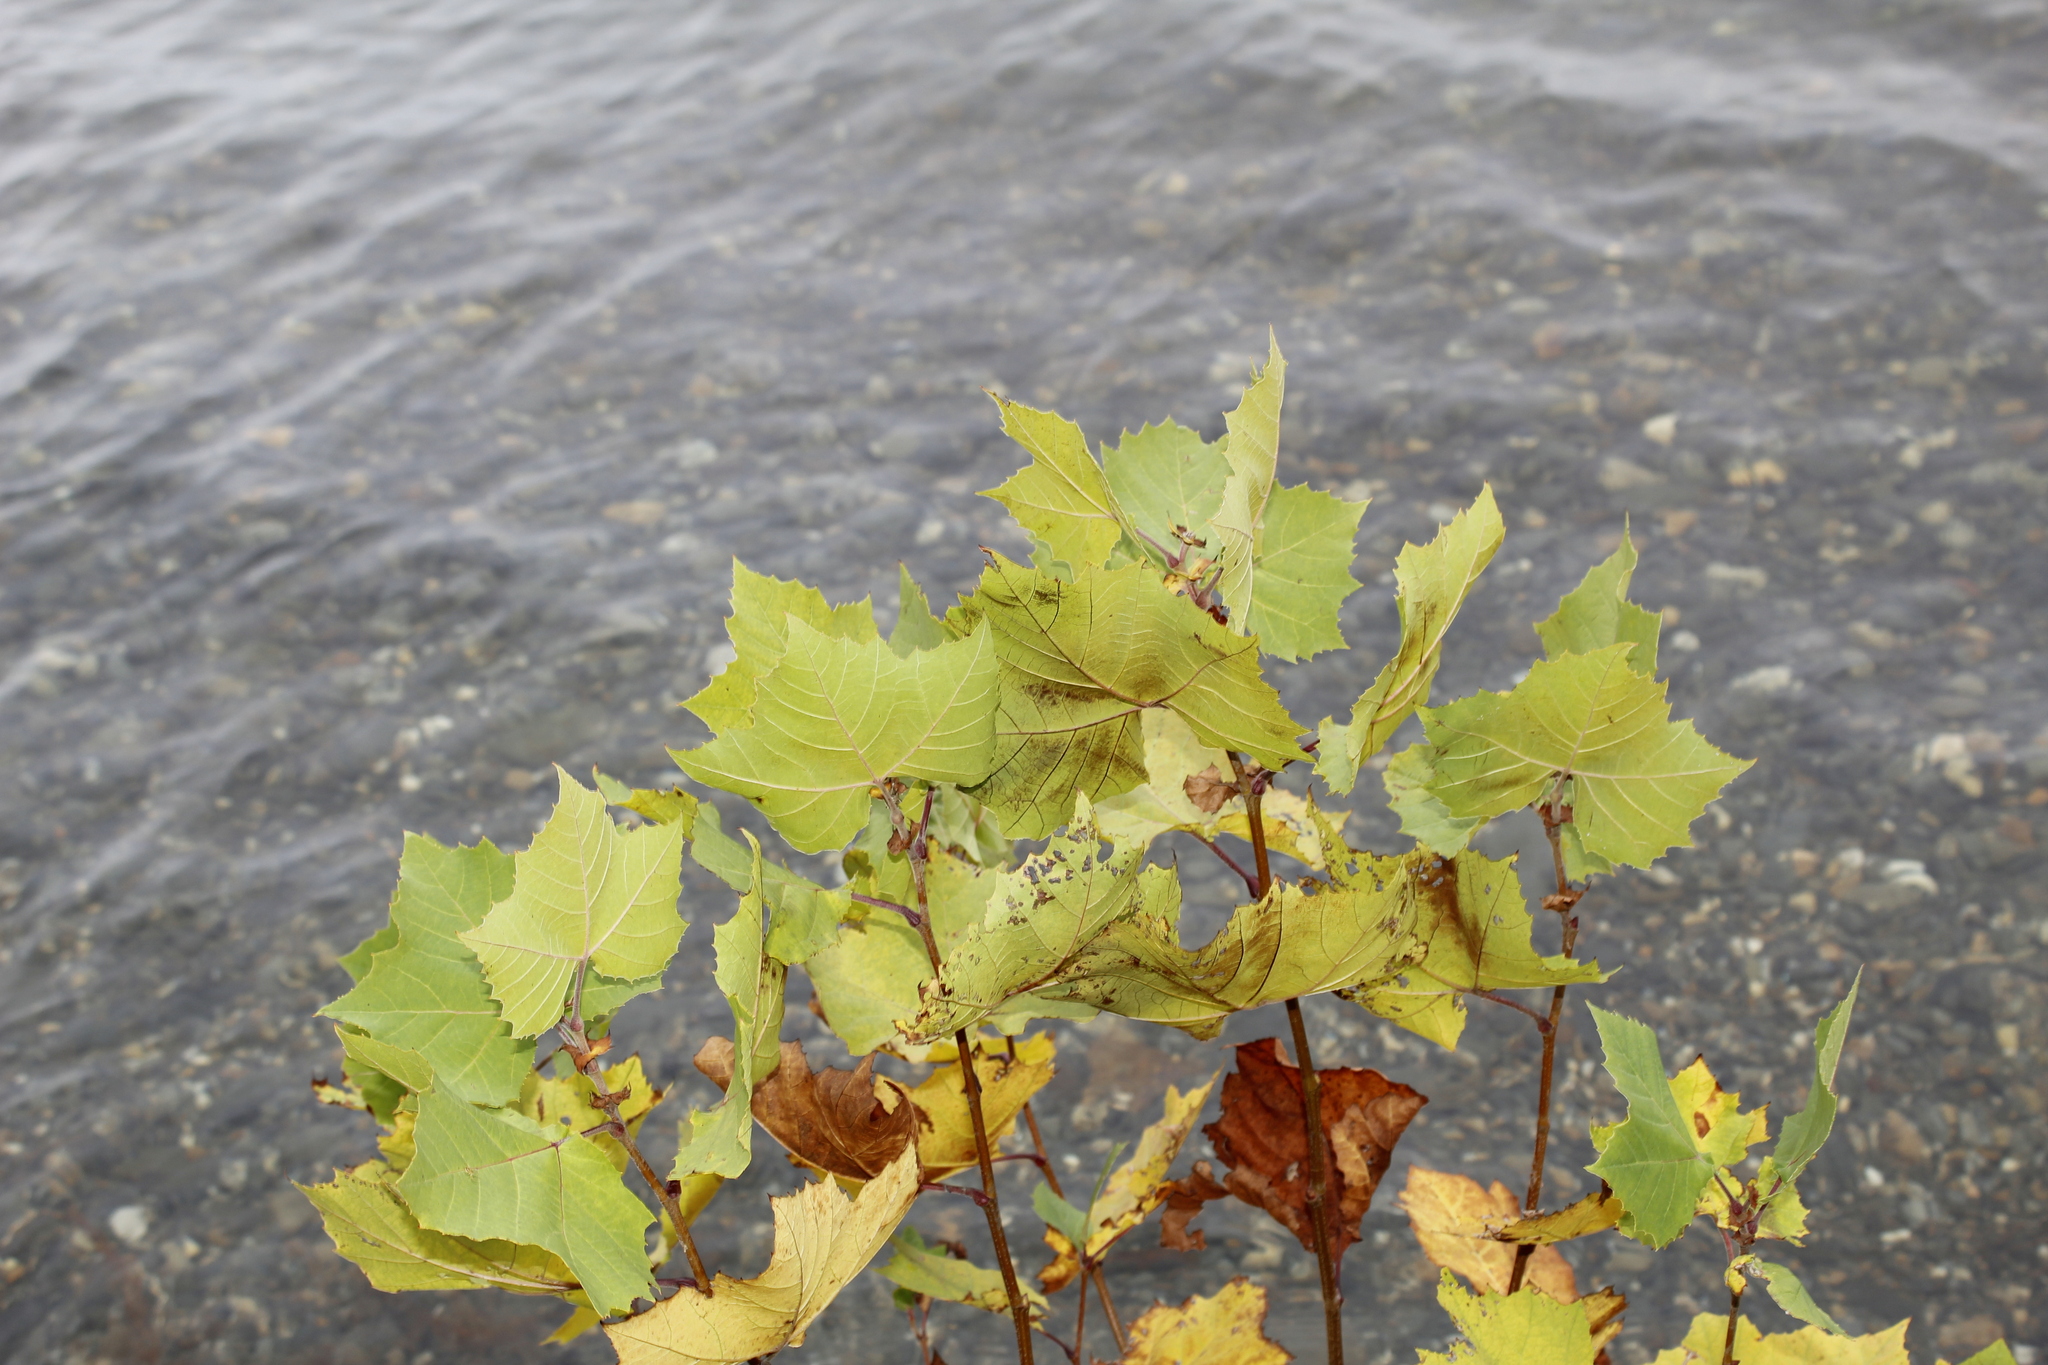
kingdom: Plantae
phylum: Tracheophyta
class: Magnoliopsida
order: Proteales
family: Platanaceae
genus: Platanus
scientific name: Platanus occidentalis
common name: American sycamore
